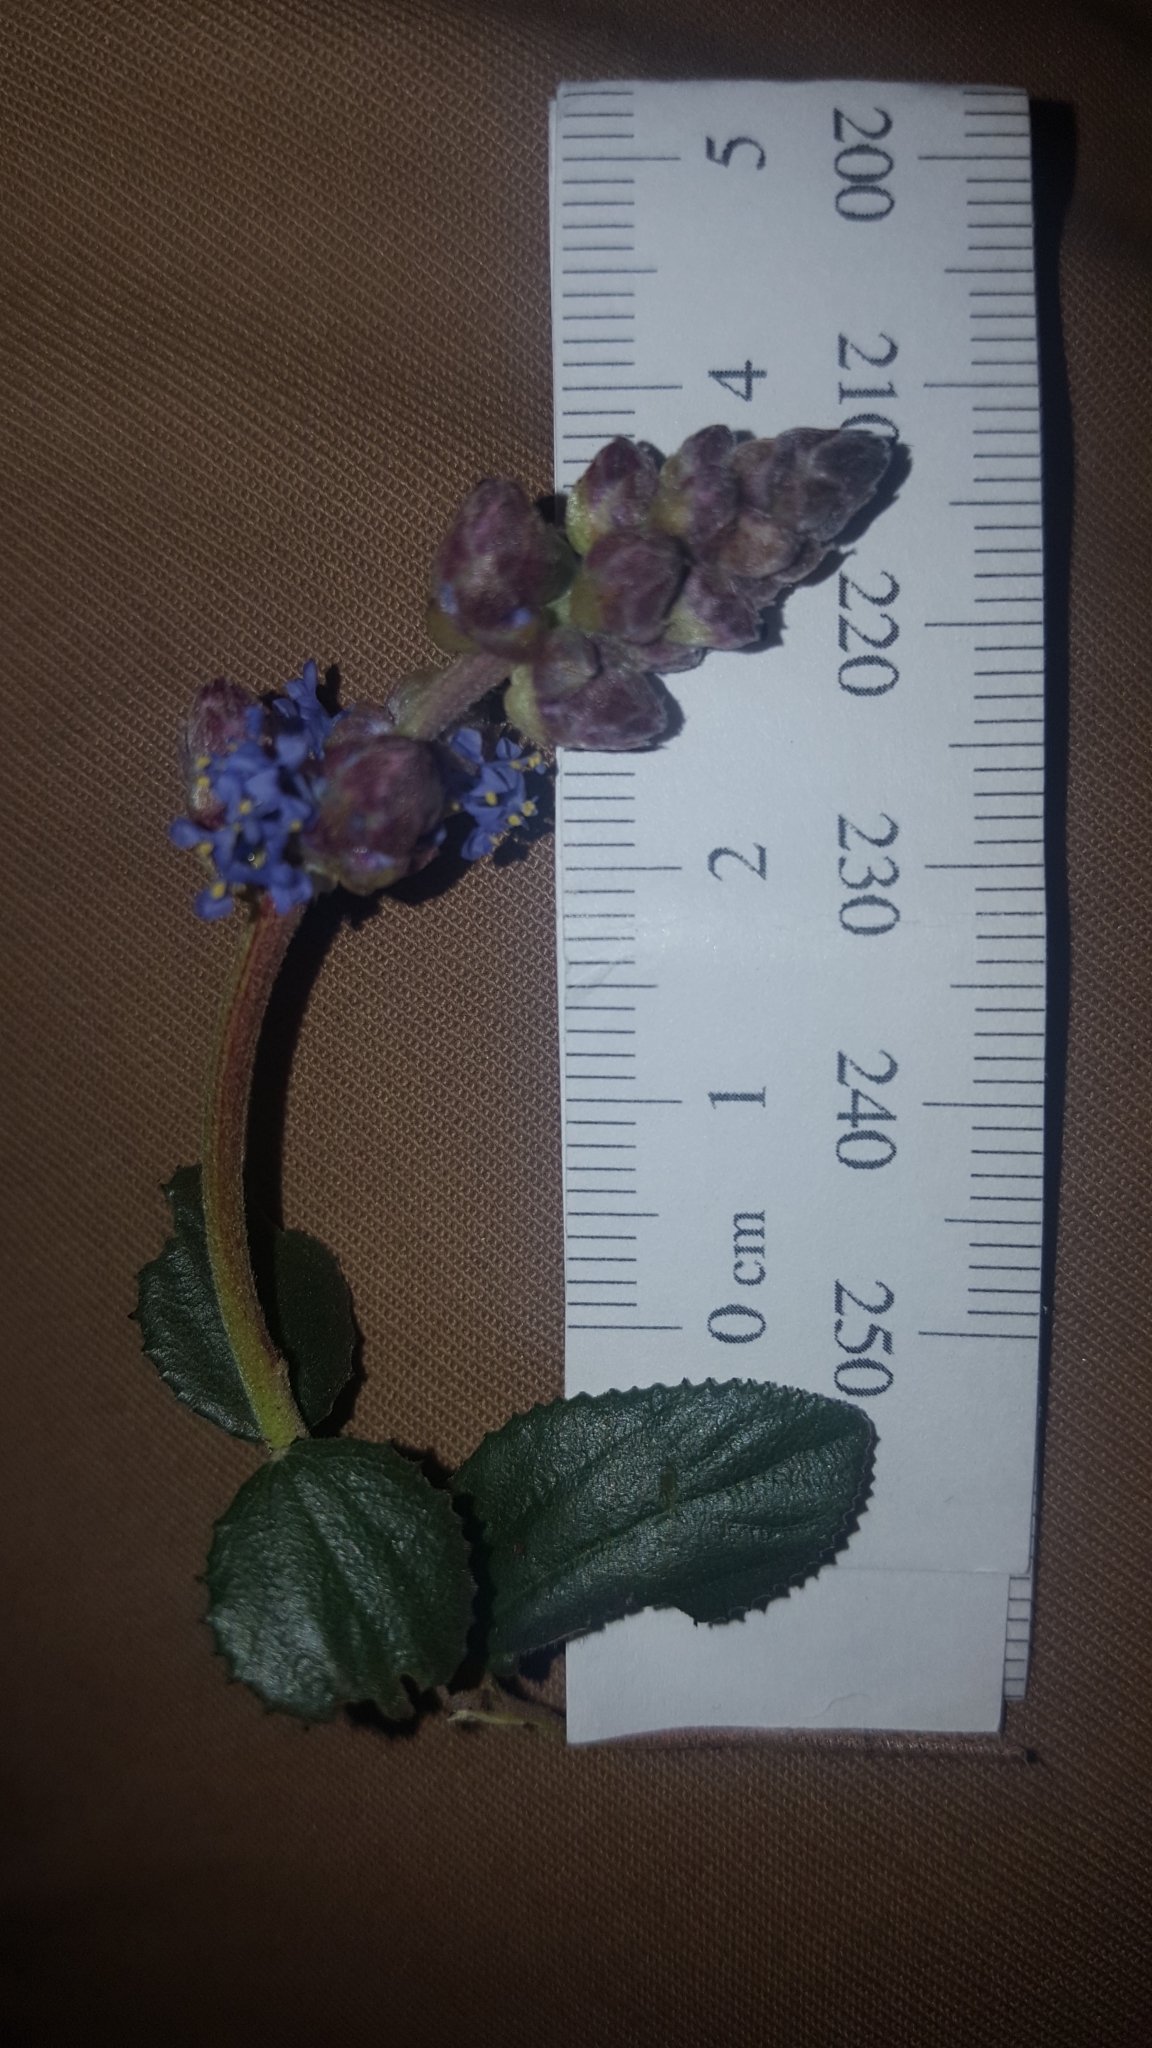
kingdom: Plantae
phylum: Tracheophyta
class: Magnoliopsida
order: Rosales
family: Rhamnaceae
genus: Ceanothus
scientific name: Ceanothus tomentosus
